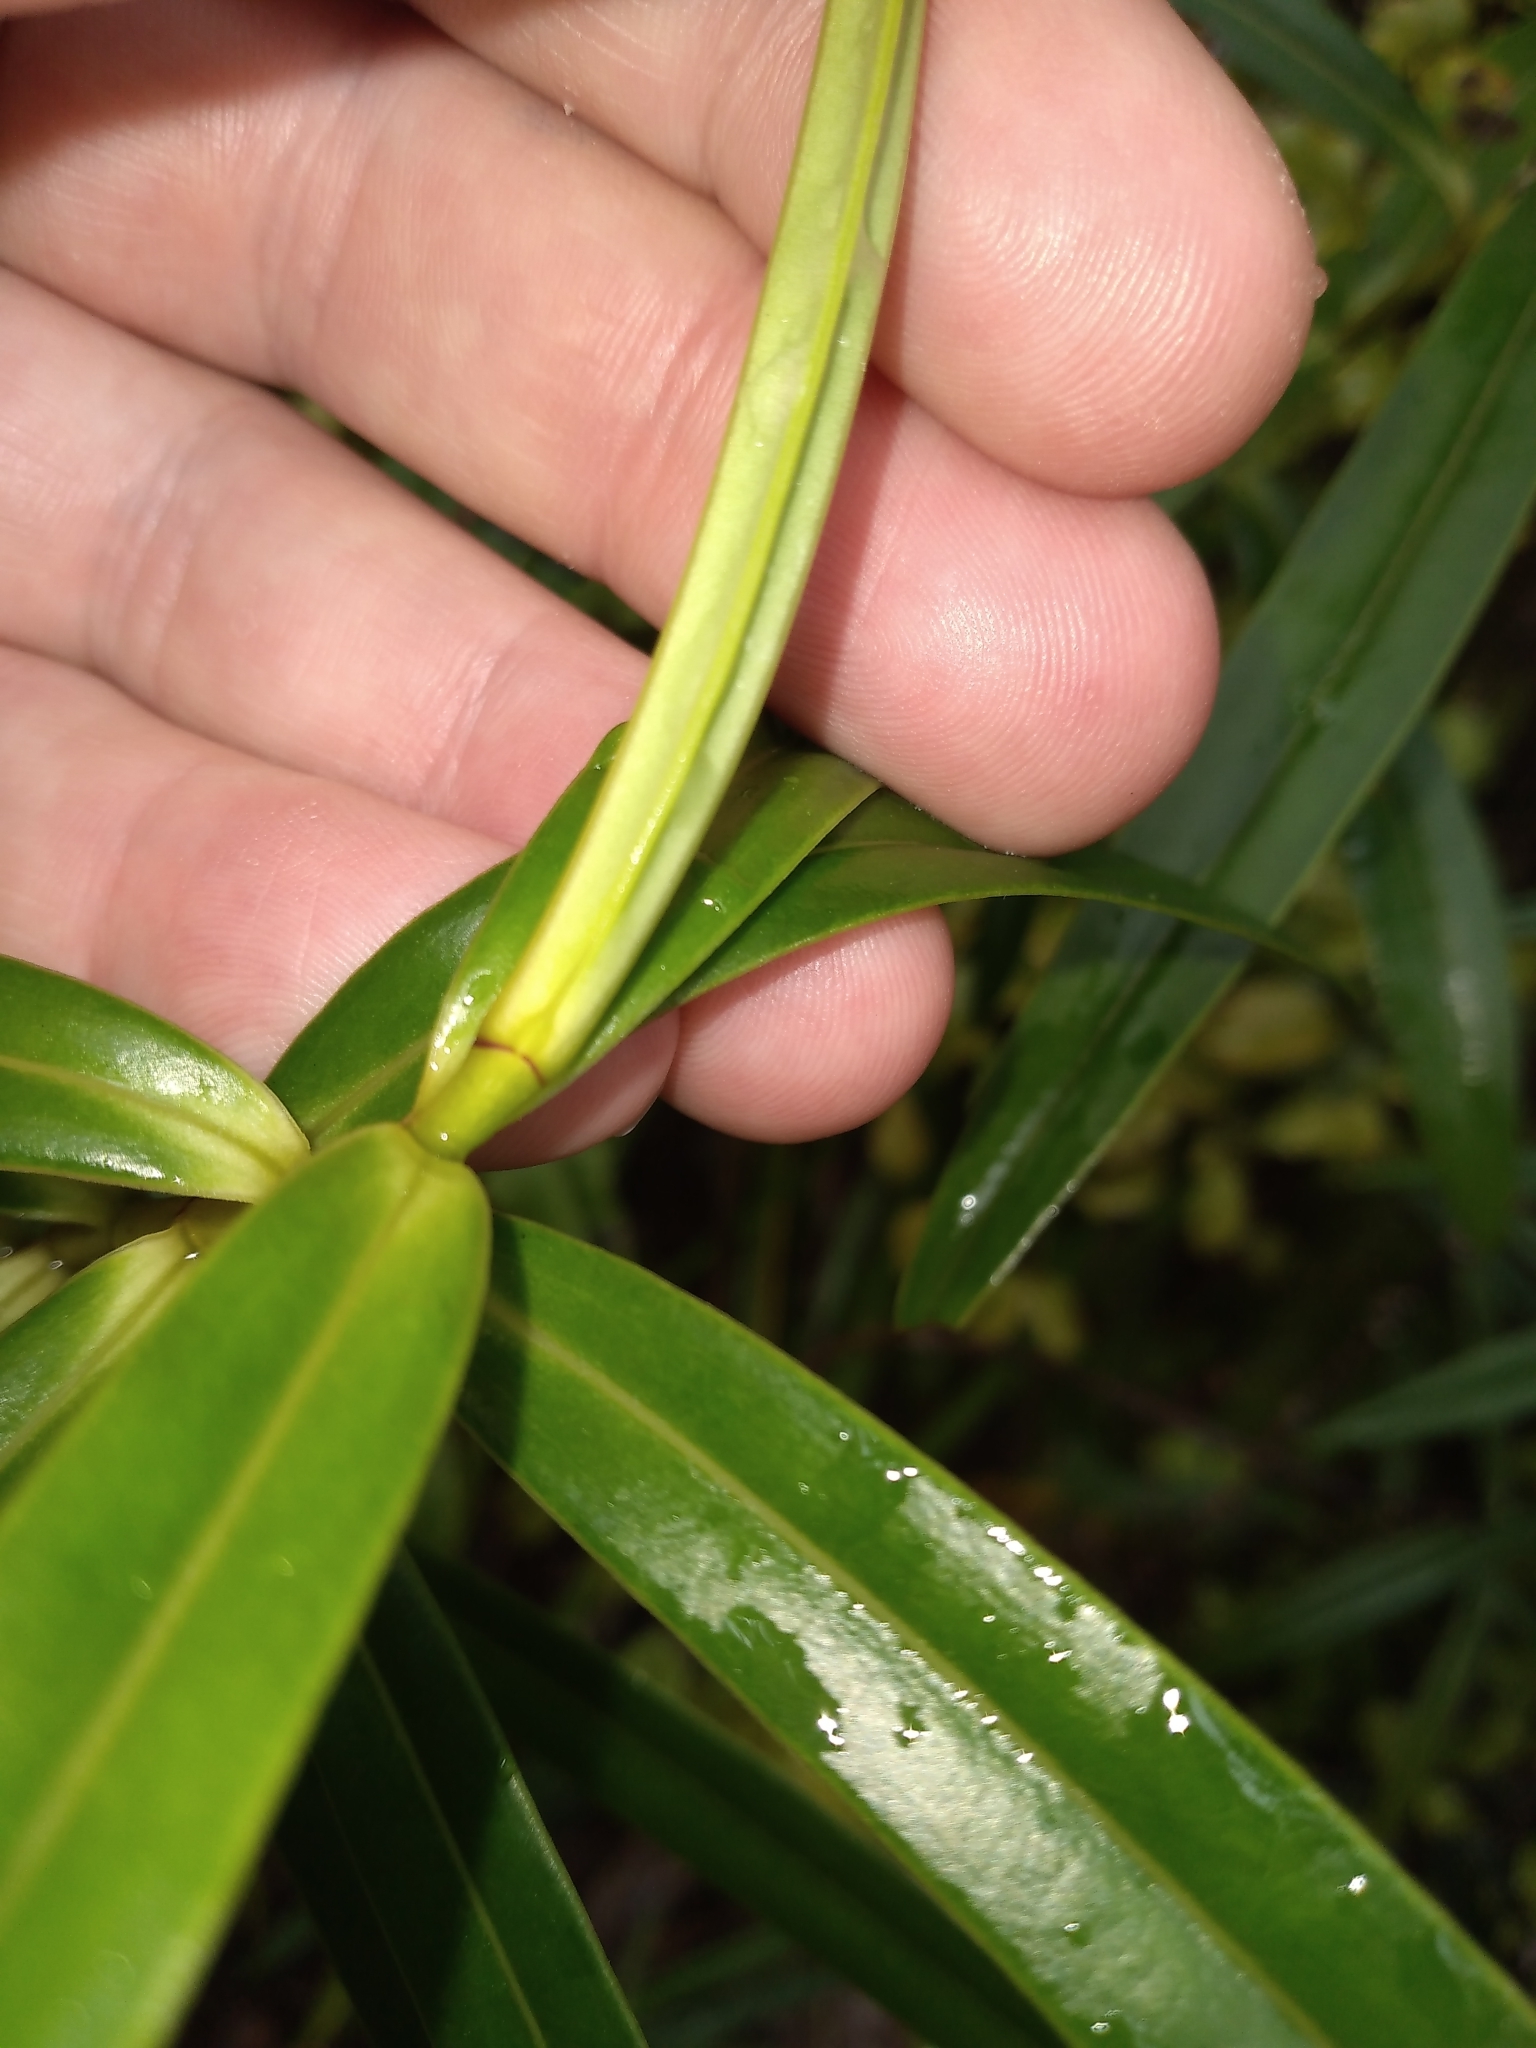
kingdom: Plantae
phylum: Tracheophyta
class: Magnoliopsida
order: Lamiales
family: Plantaginaceae
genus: Veronica
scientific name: Veronica corriganii
